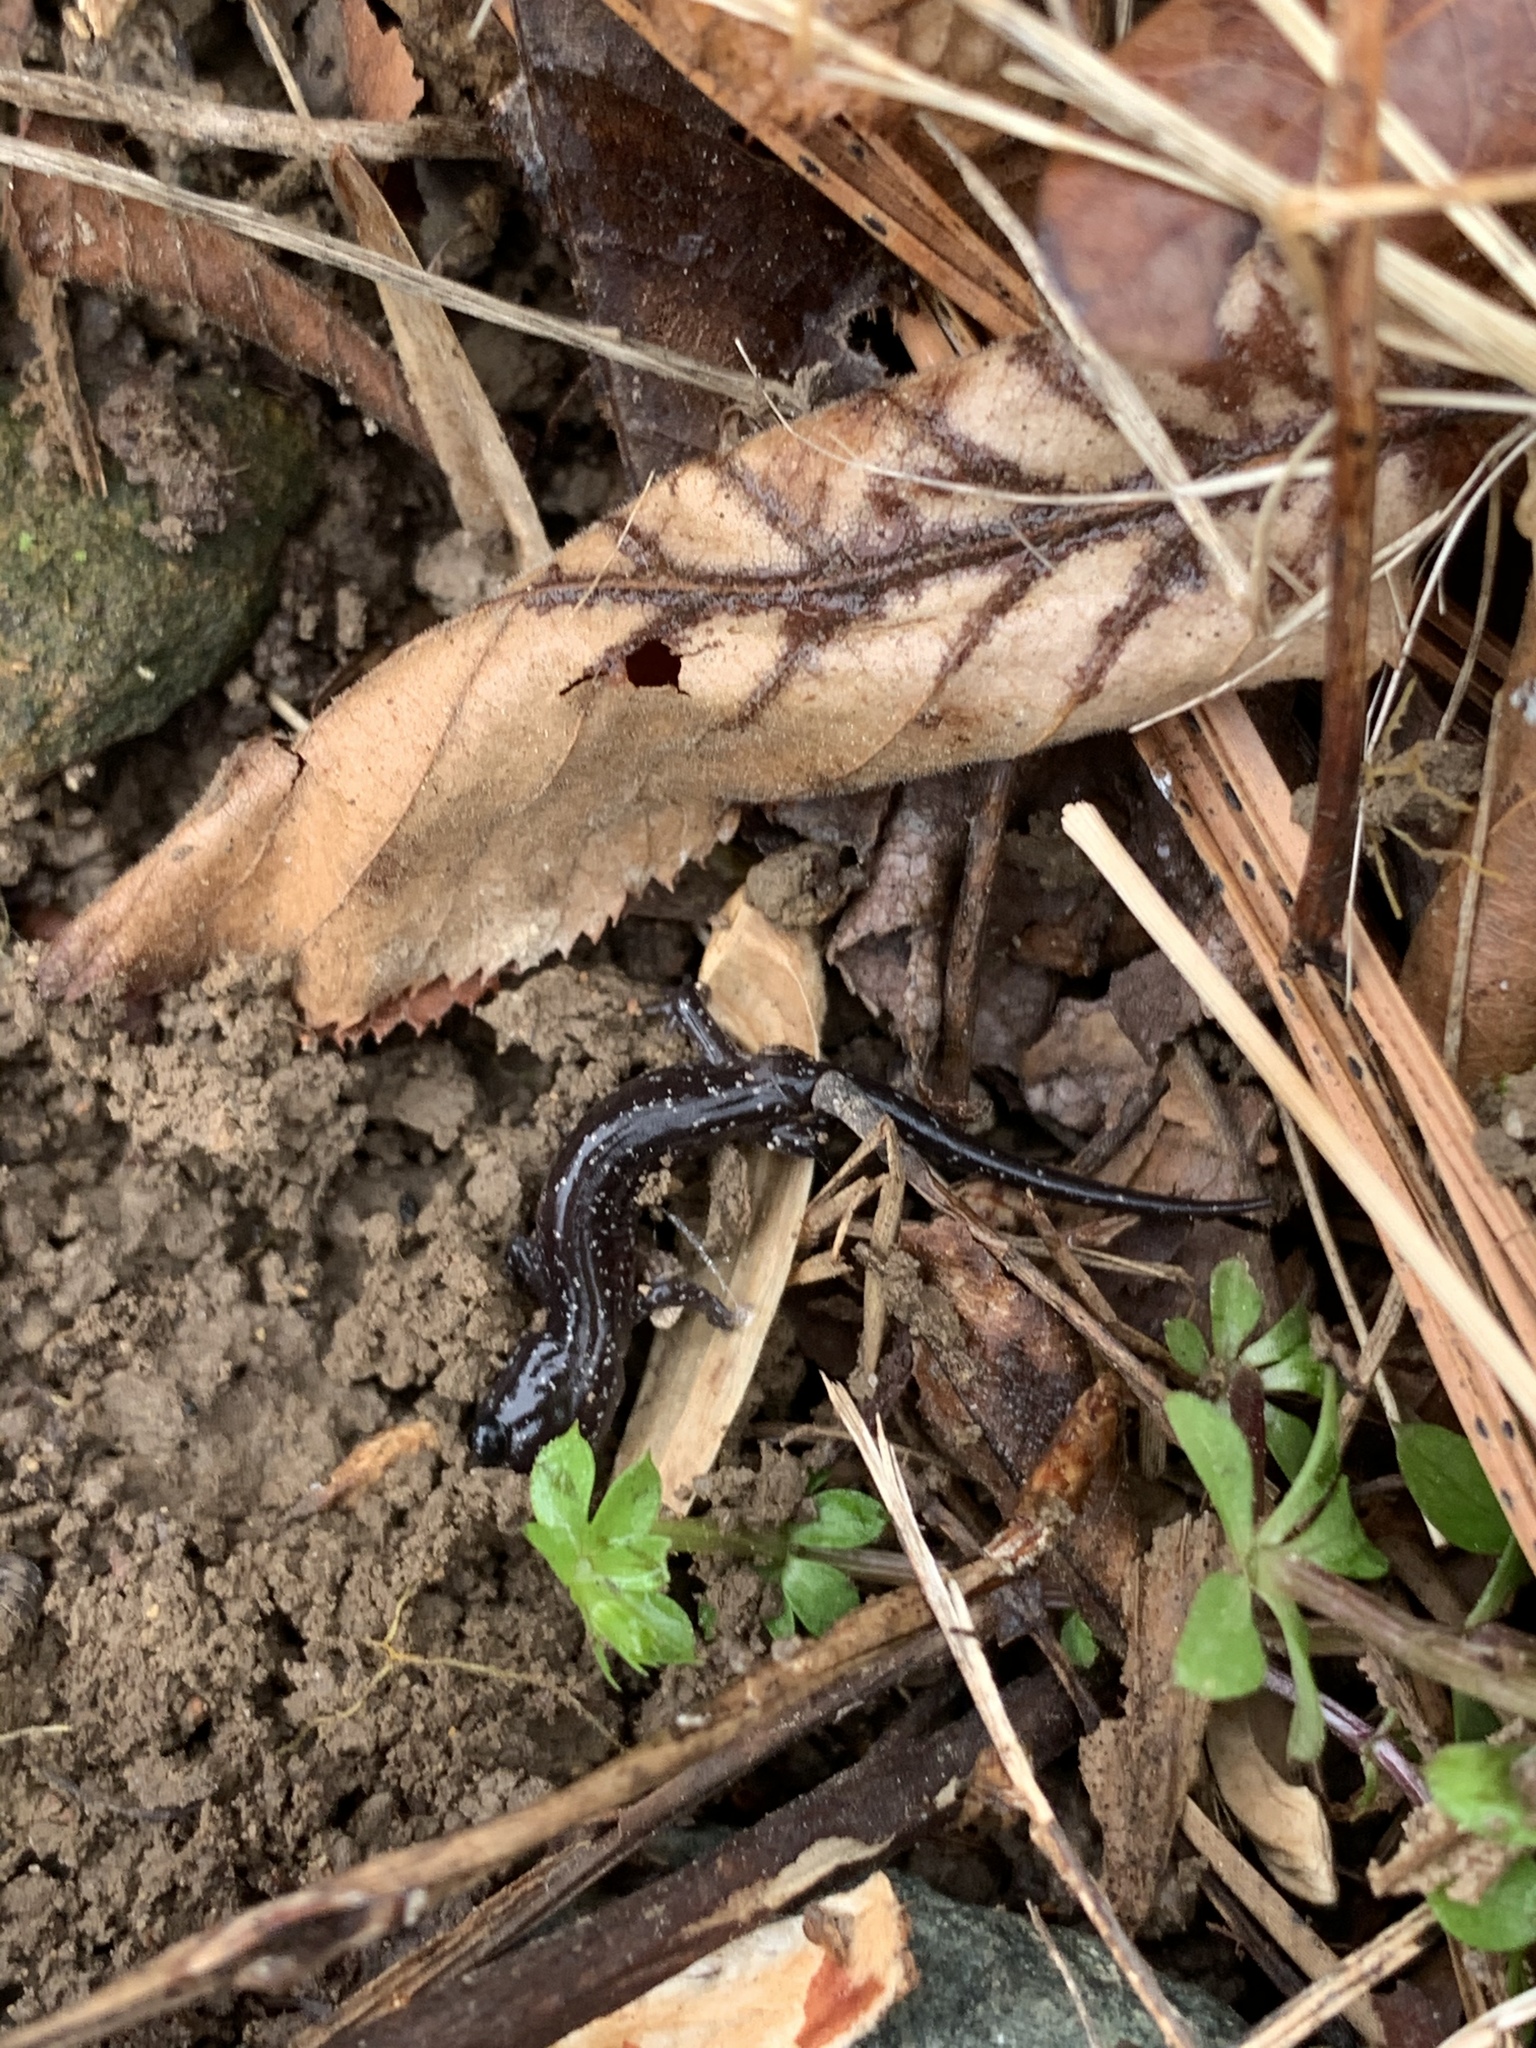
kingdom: Animalia
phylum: Chordata
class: Amphibia
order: Caudata
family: Plethodontidae
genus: Plethodon
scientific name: Plethodon cylindraceus
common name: White-spotted slimy salamander
